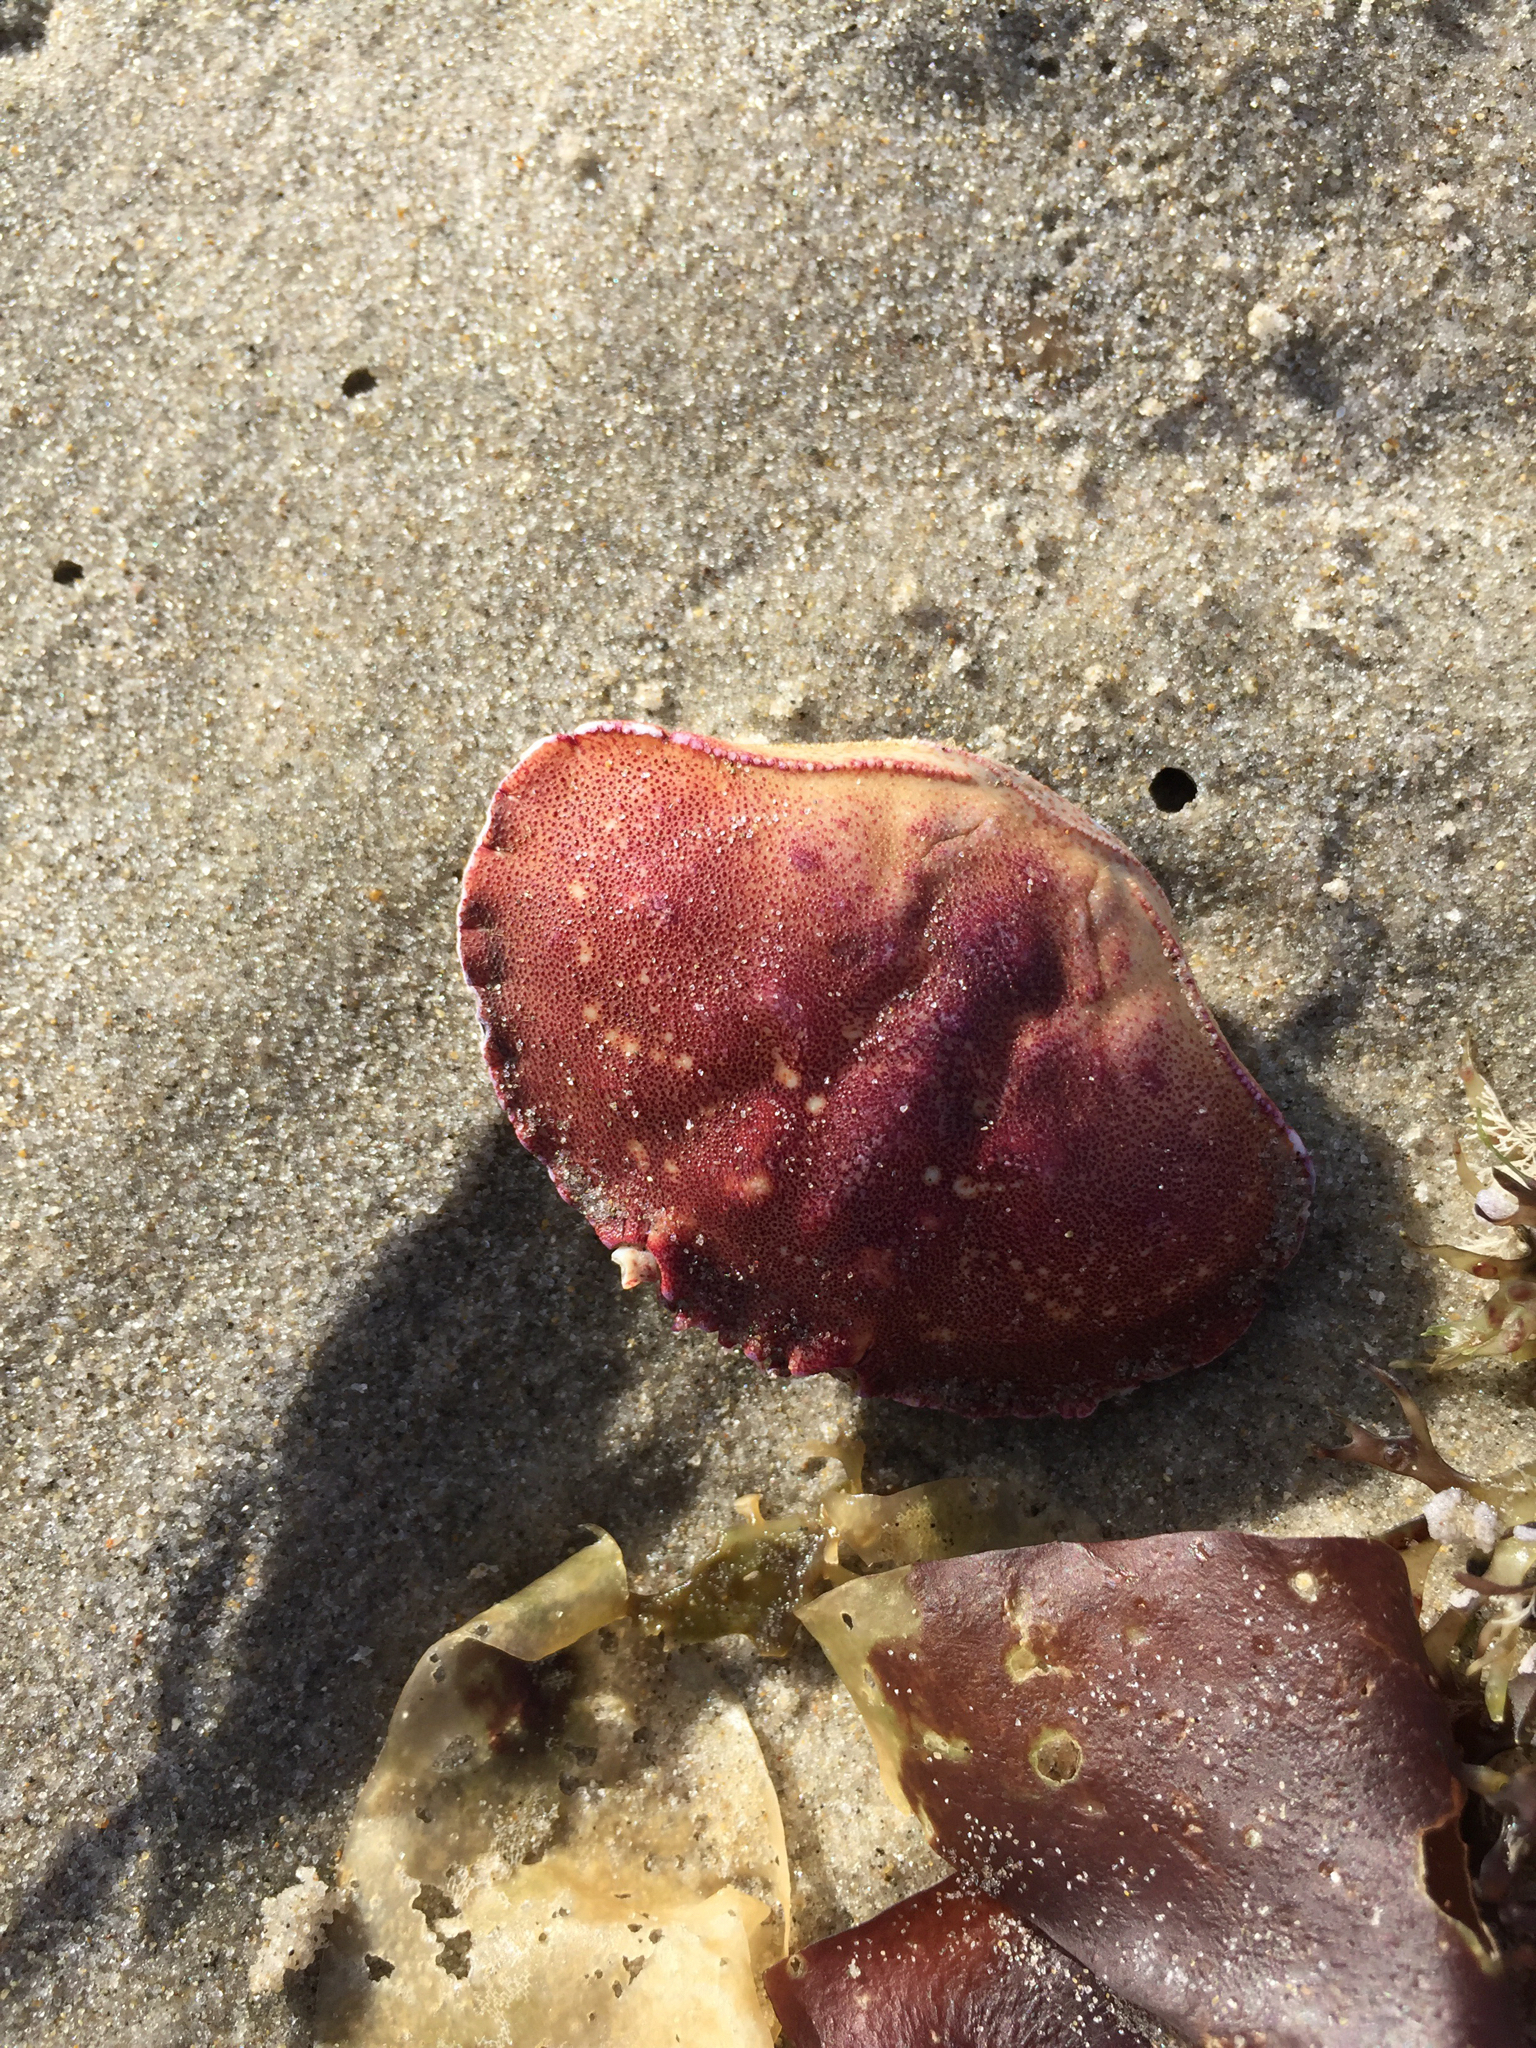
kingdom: Animalia
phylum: Arthropoda
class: Malacostraca
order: Decapoda
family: Cancridae
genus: Cancer
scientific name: Cancer borealis
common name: Jonah crab
